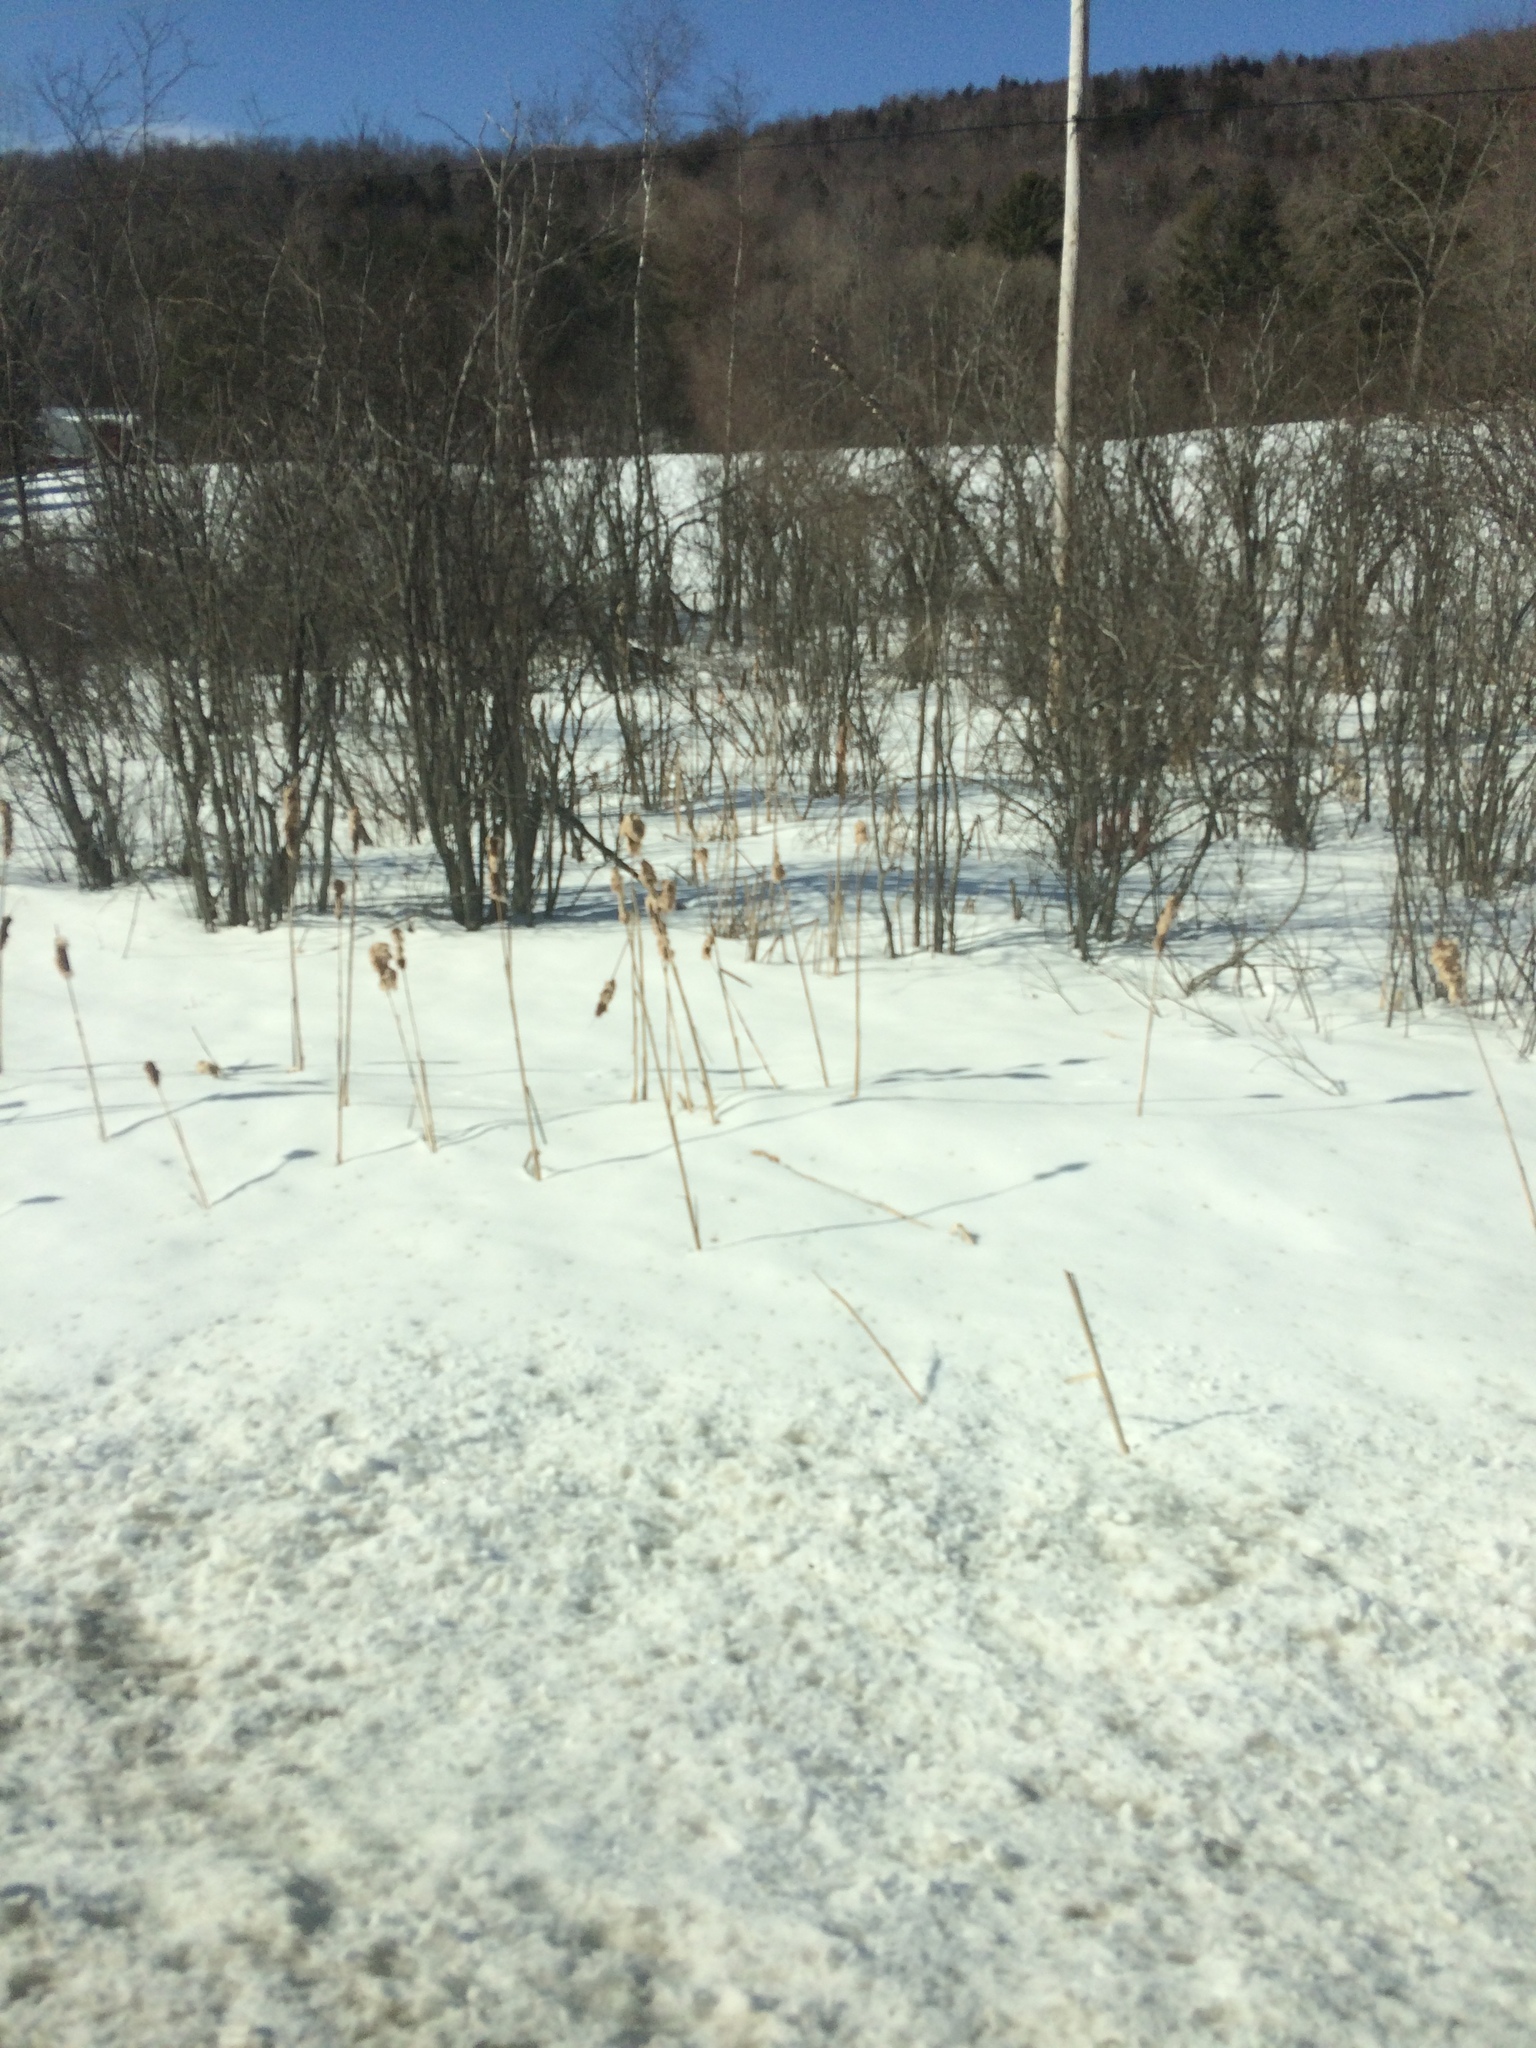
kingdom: Plantae
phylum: Tracheophyta
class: Liliopsida
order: Poales
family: Typhaceae
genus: Typha
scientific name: Typha
